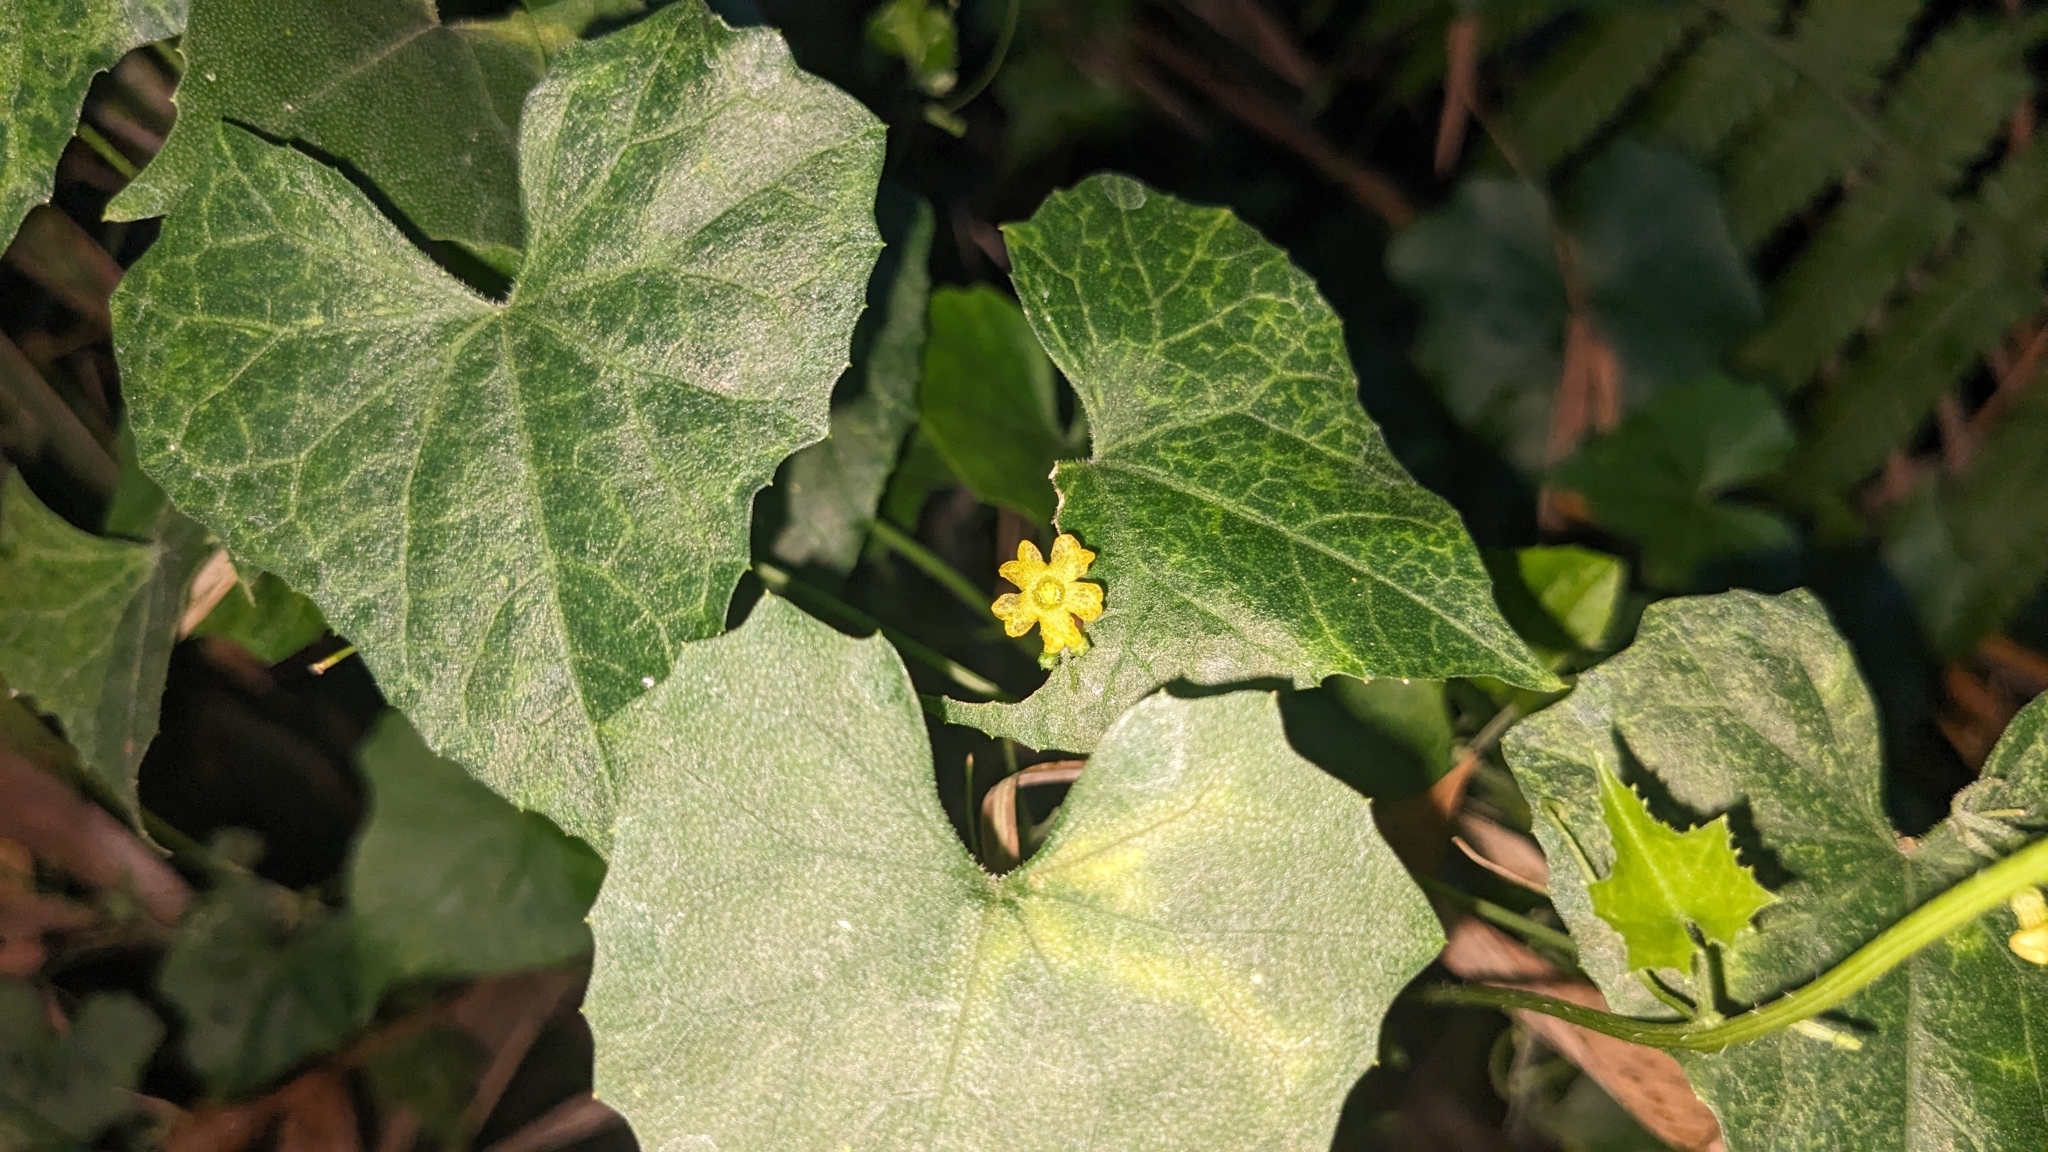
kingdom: Plantae
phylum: Tracheophyta
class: Magnoliopsida
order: Cucurbitales
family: Cucurbitaceae
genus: Melothria
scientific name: Melothria pendula
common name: Creeping-cucumber
